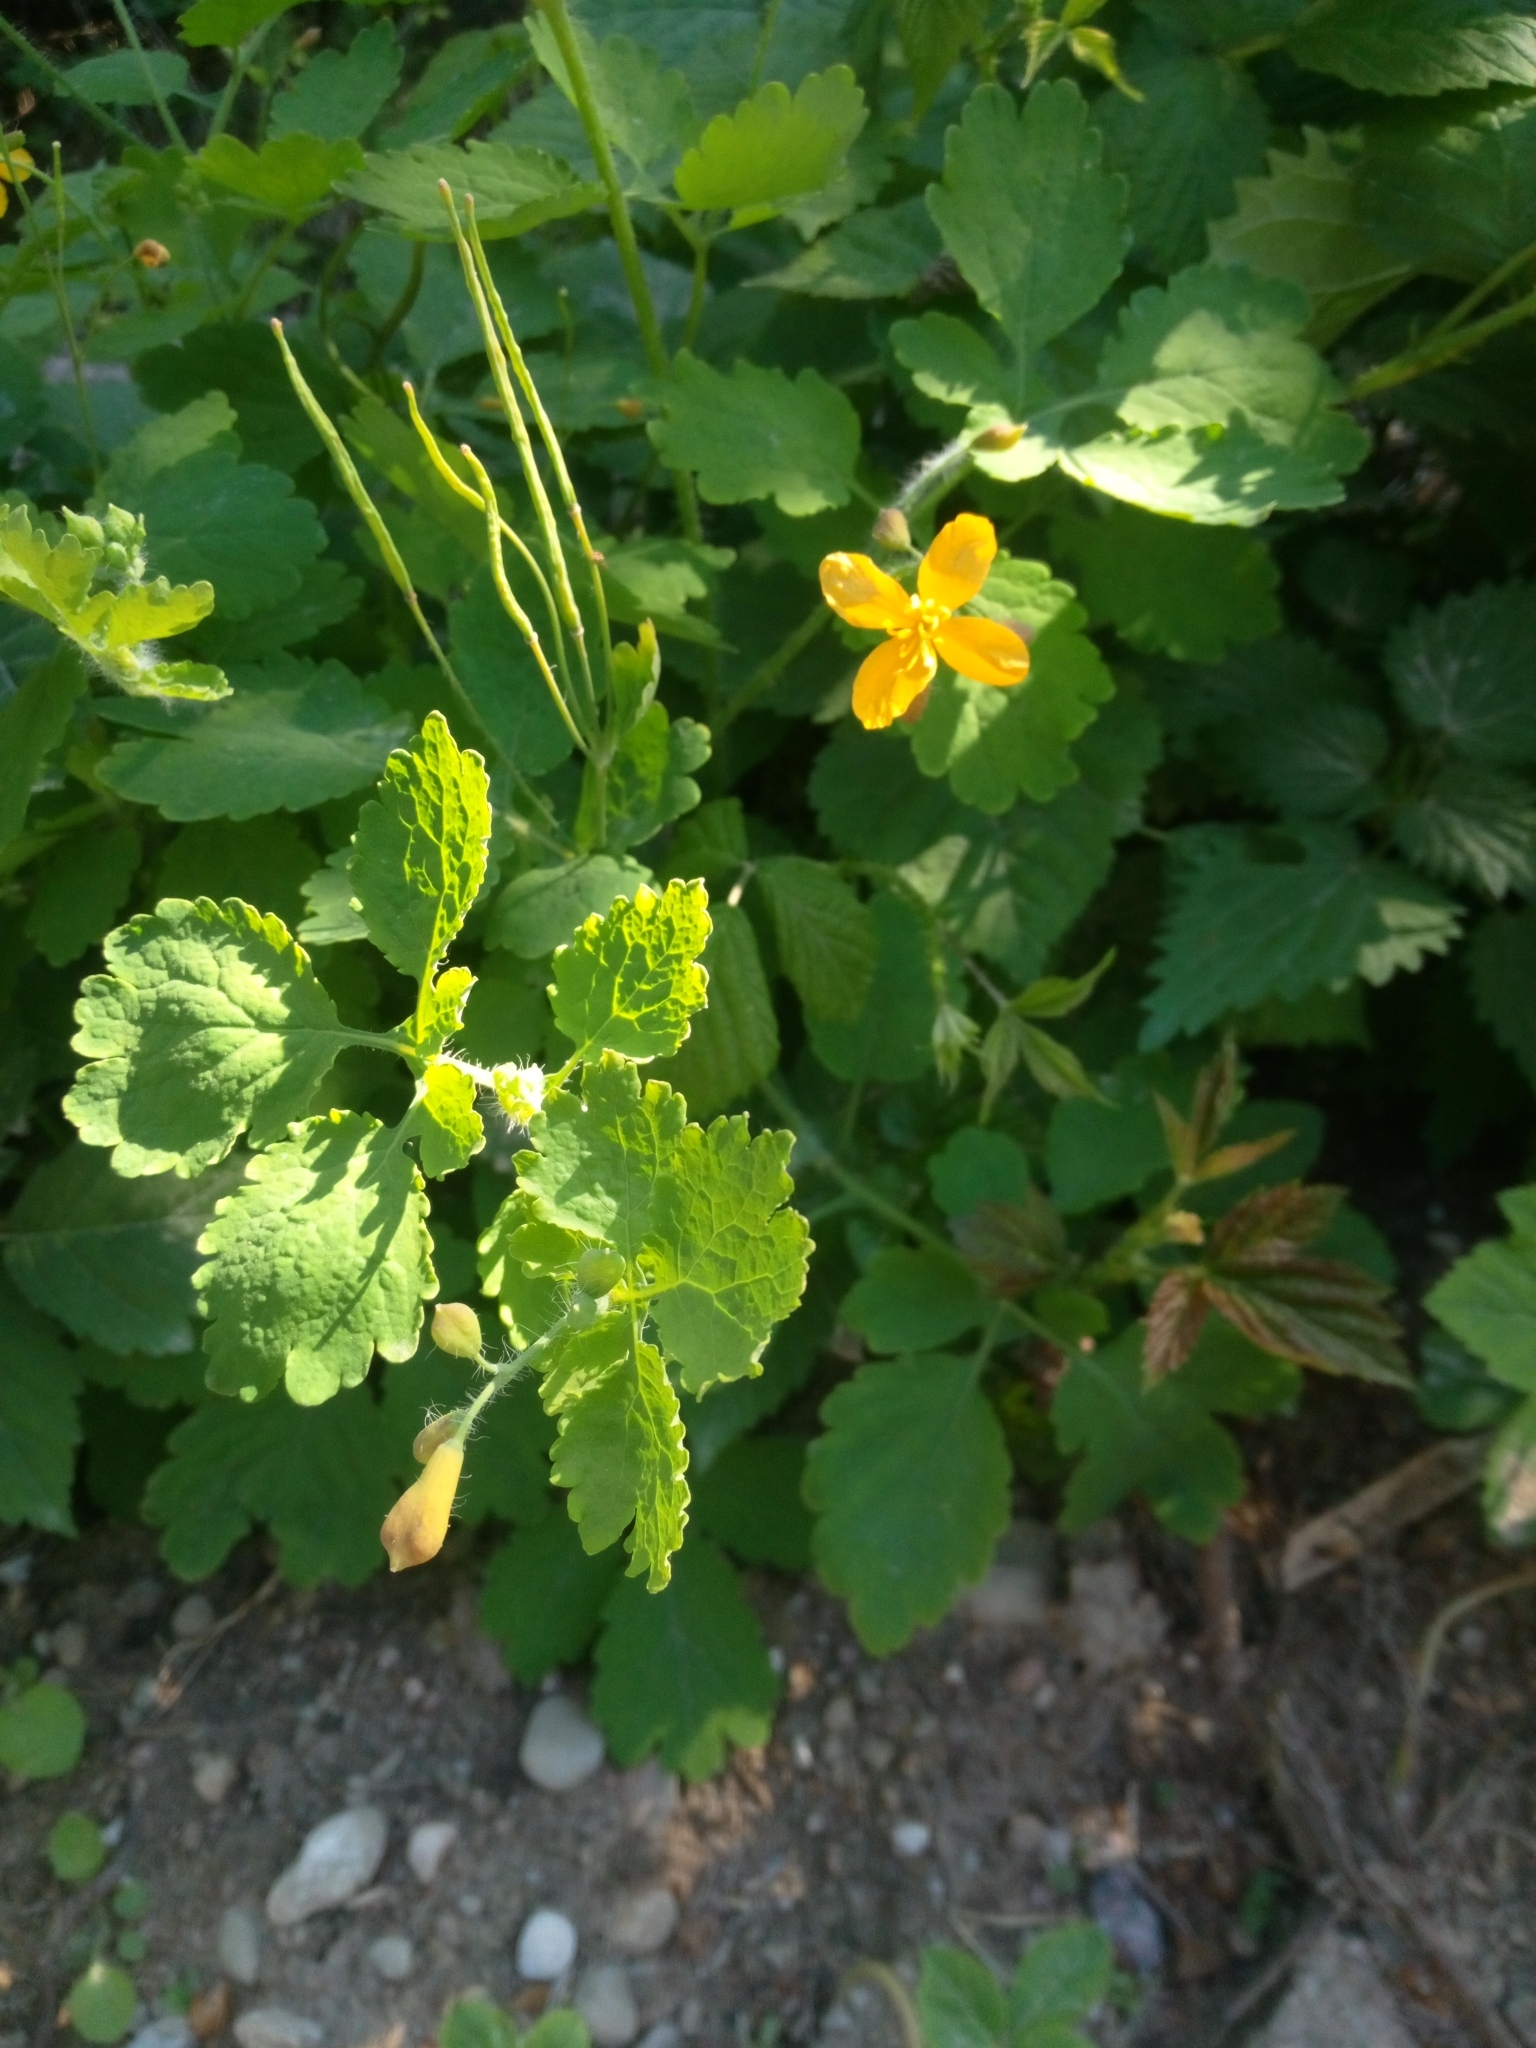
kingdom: Plantae
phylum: Tracheophyta
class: Magnoliopsida
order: Ranunculales
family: Papaveraceae
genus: Chelidonium
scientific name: Chelidonium majus
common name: Greater celandine
